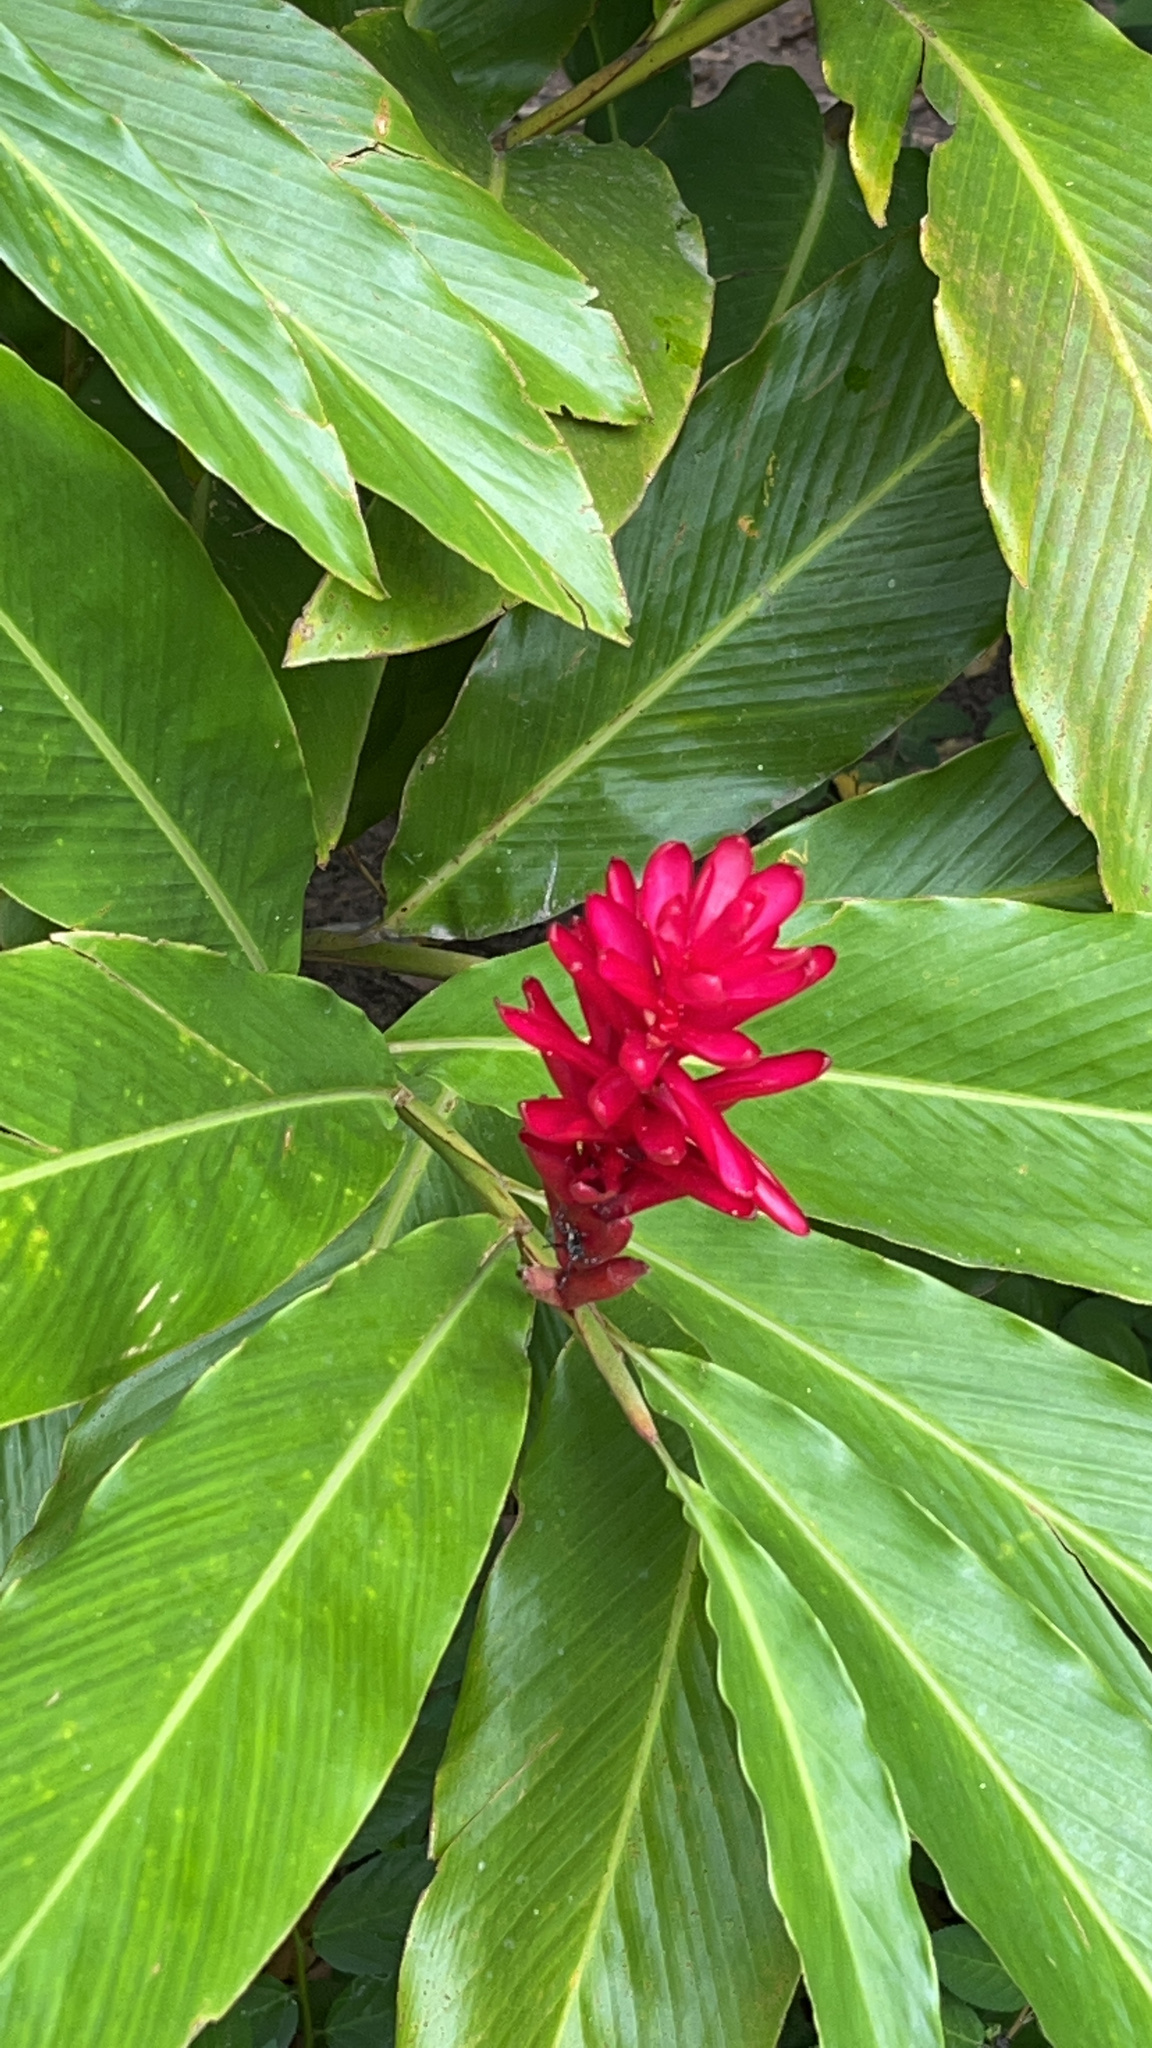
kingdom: Plantae
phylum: Tracheophyta
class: Liliopsida
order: Zingiberales
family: Zingiberaceae
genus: Alpinia
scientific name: Alpinia purpurata
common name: Red ginger
